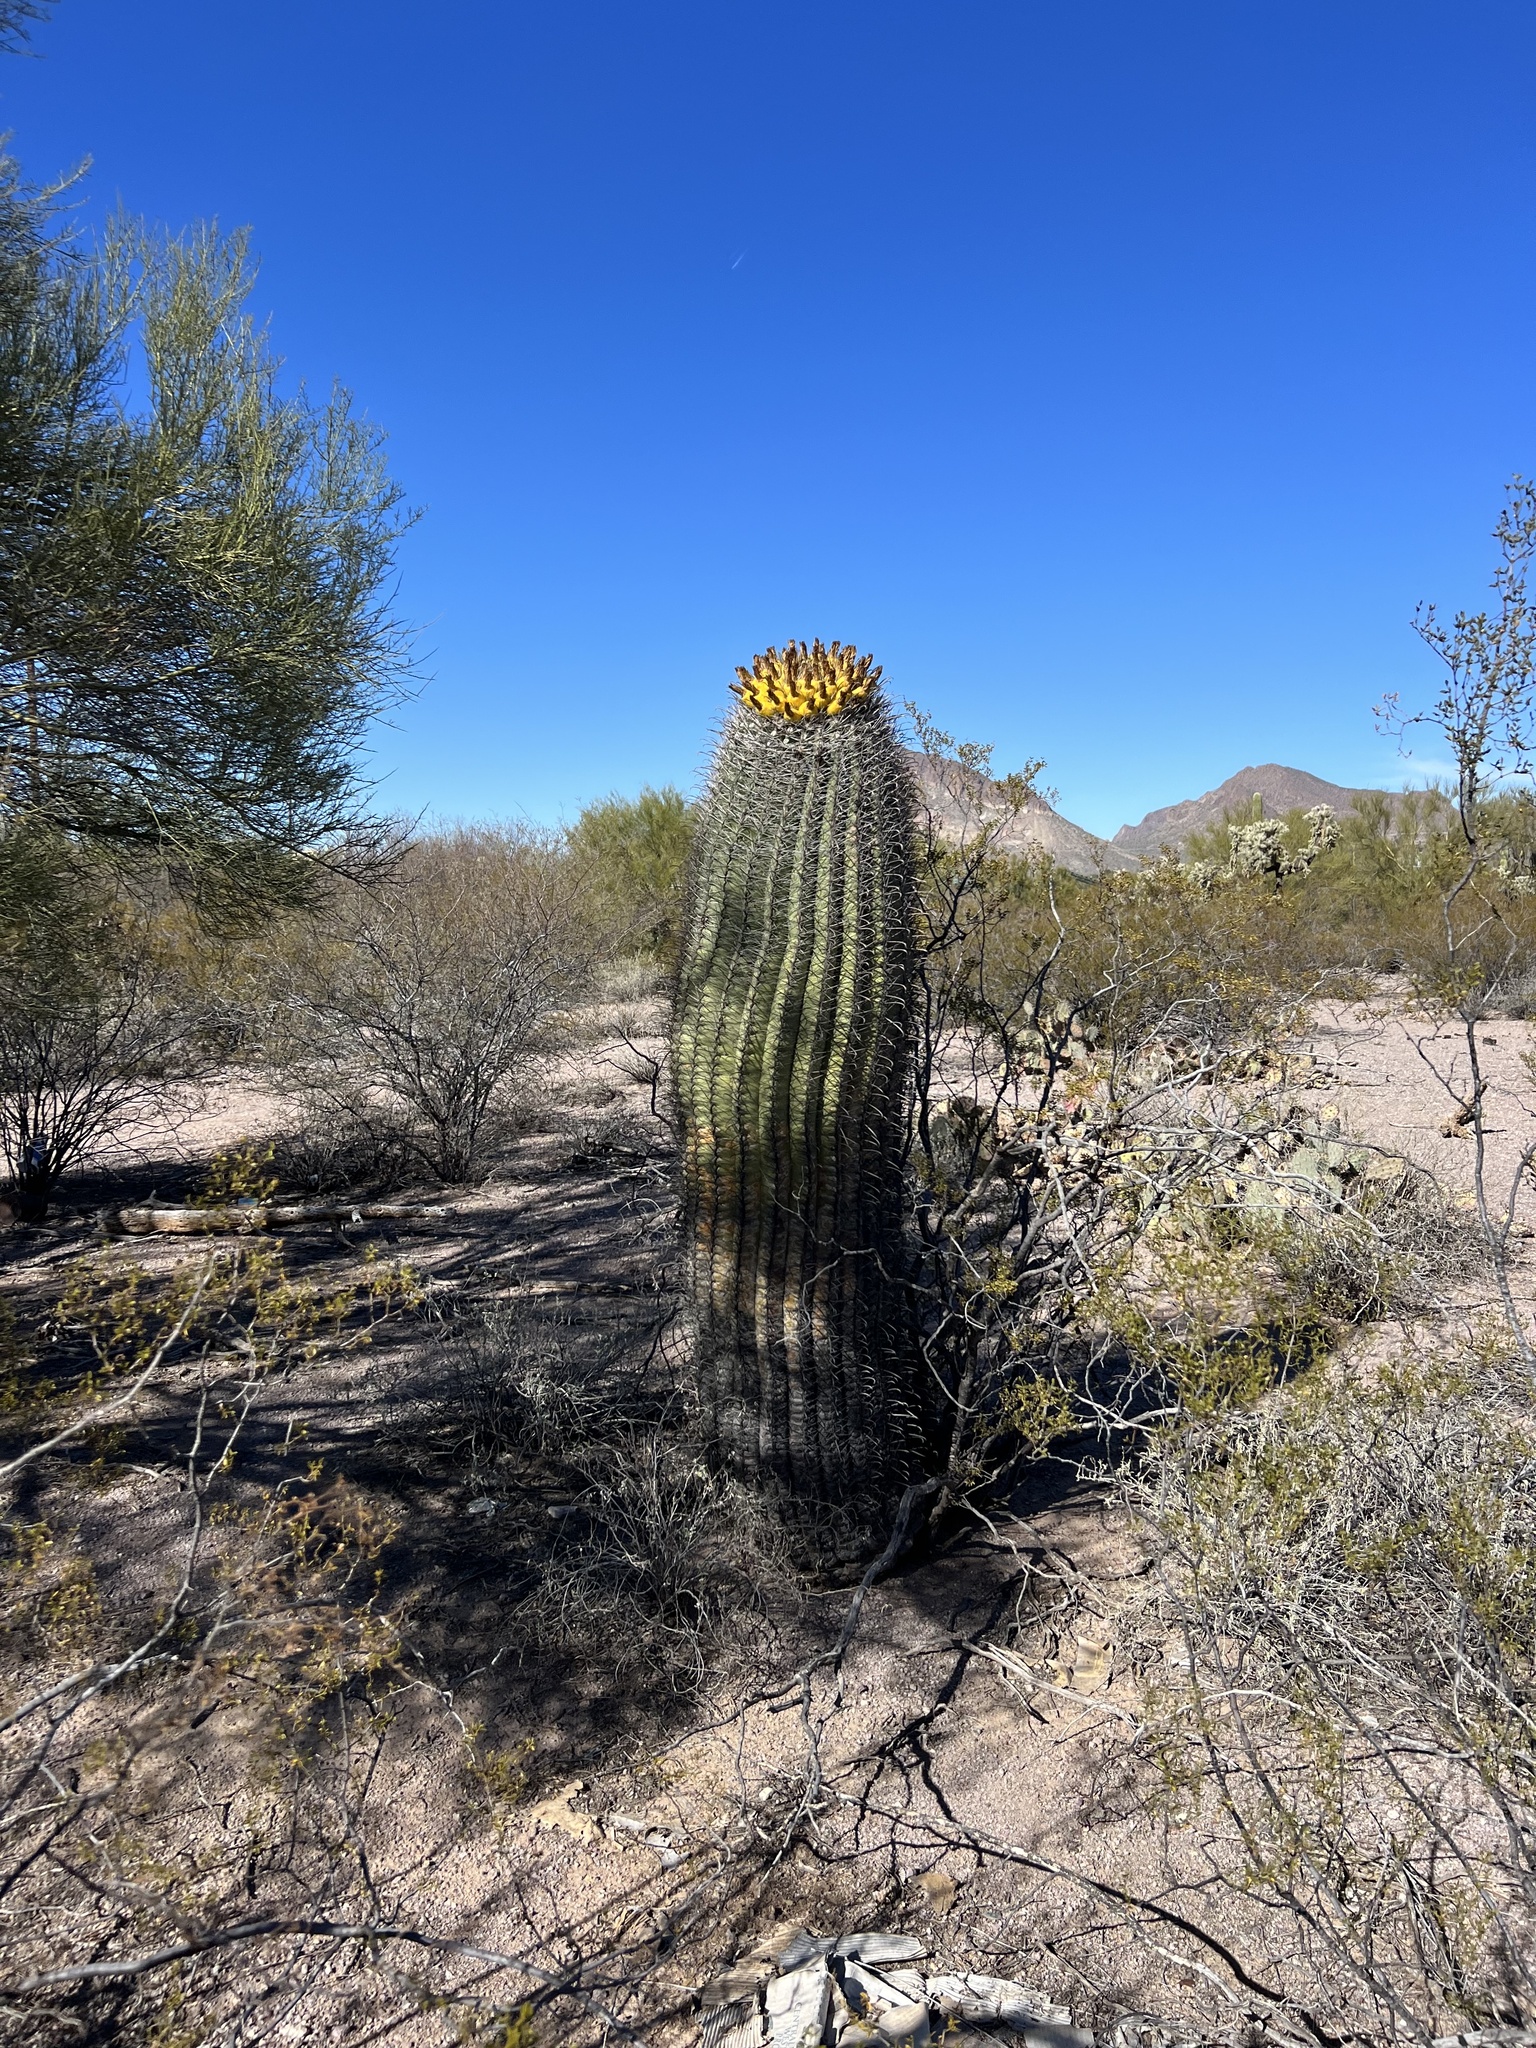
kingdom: Plantae
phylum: Tracheophyta
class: Magnoliopsida
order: Caryophyllales
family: Cactaceae
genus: Ferocactus
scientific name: Ferocactus wislizeni
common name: Candy barrel cactus
